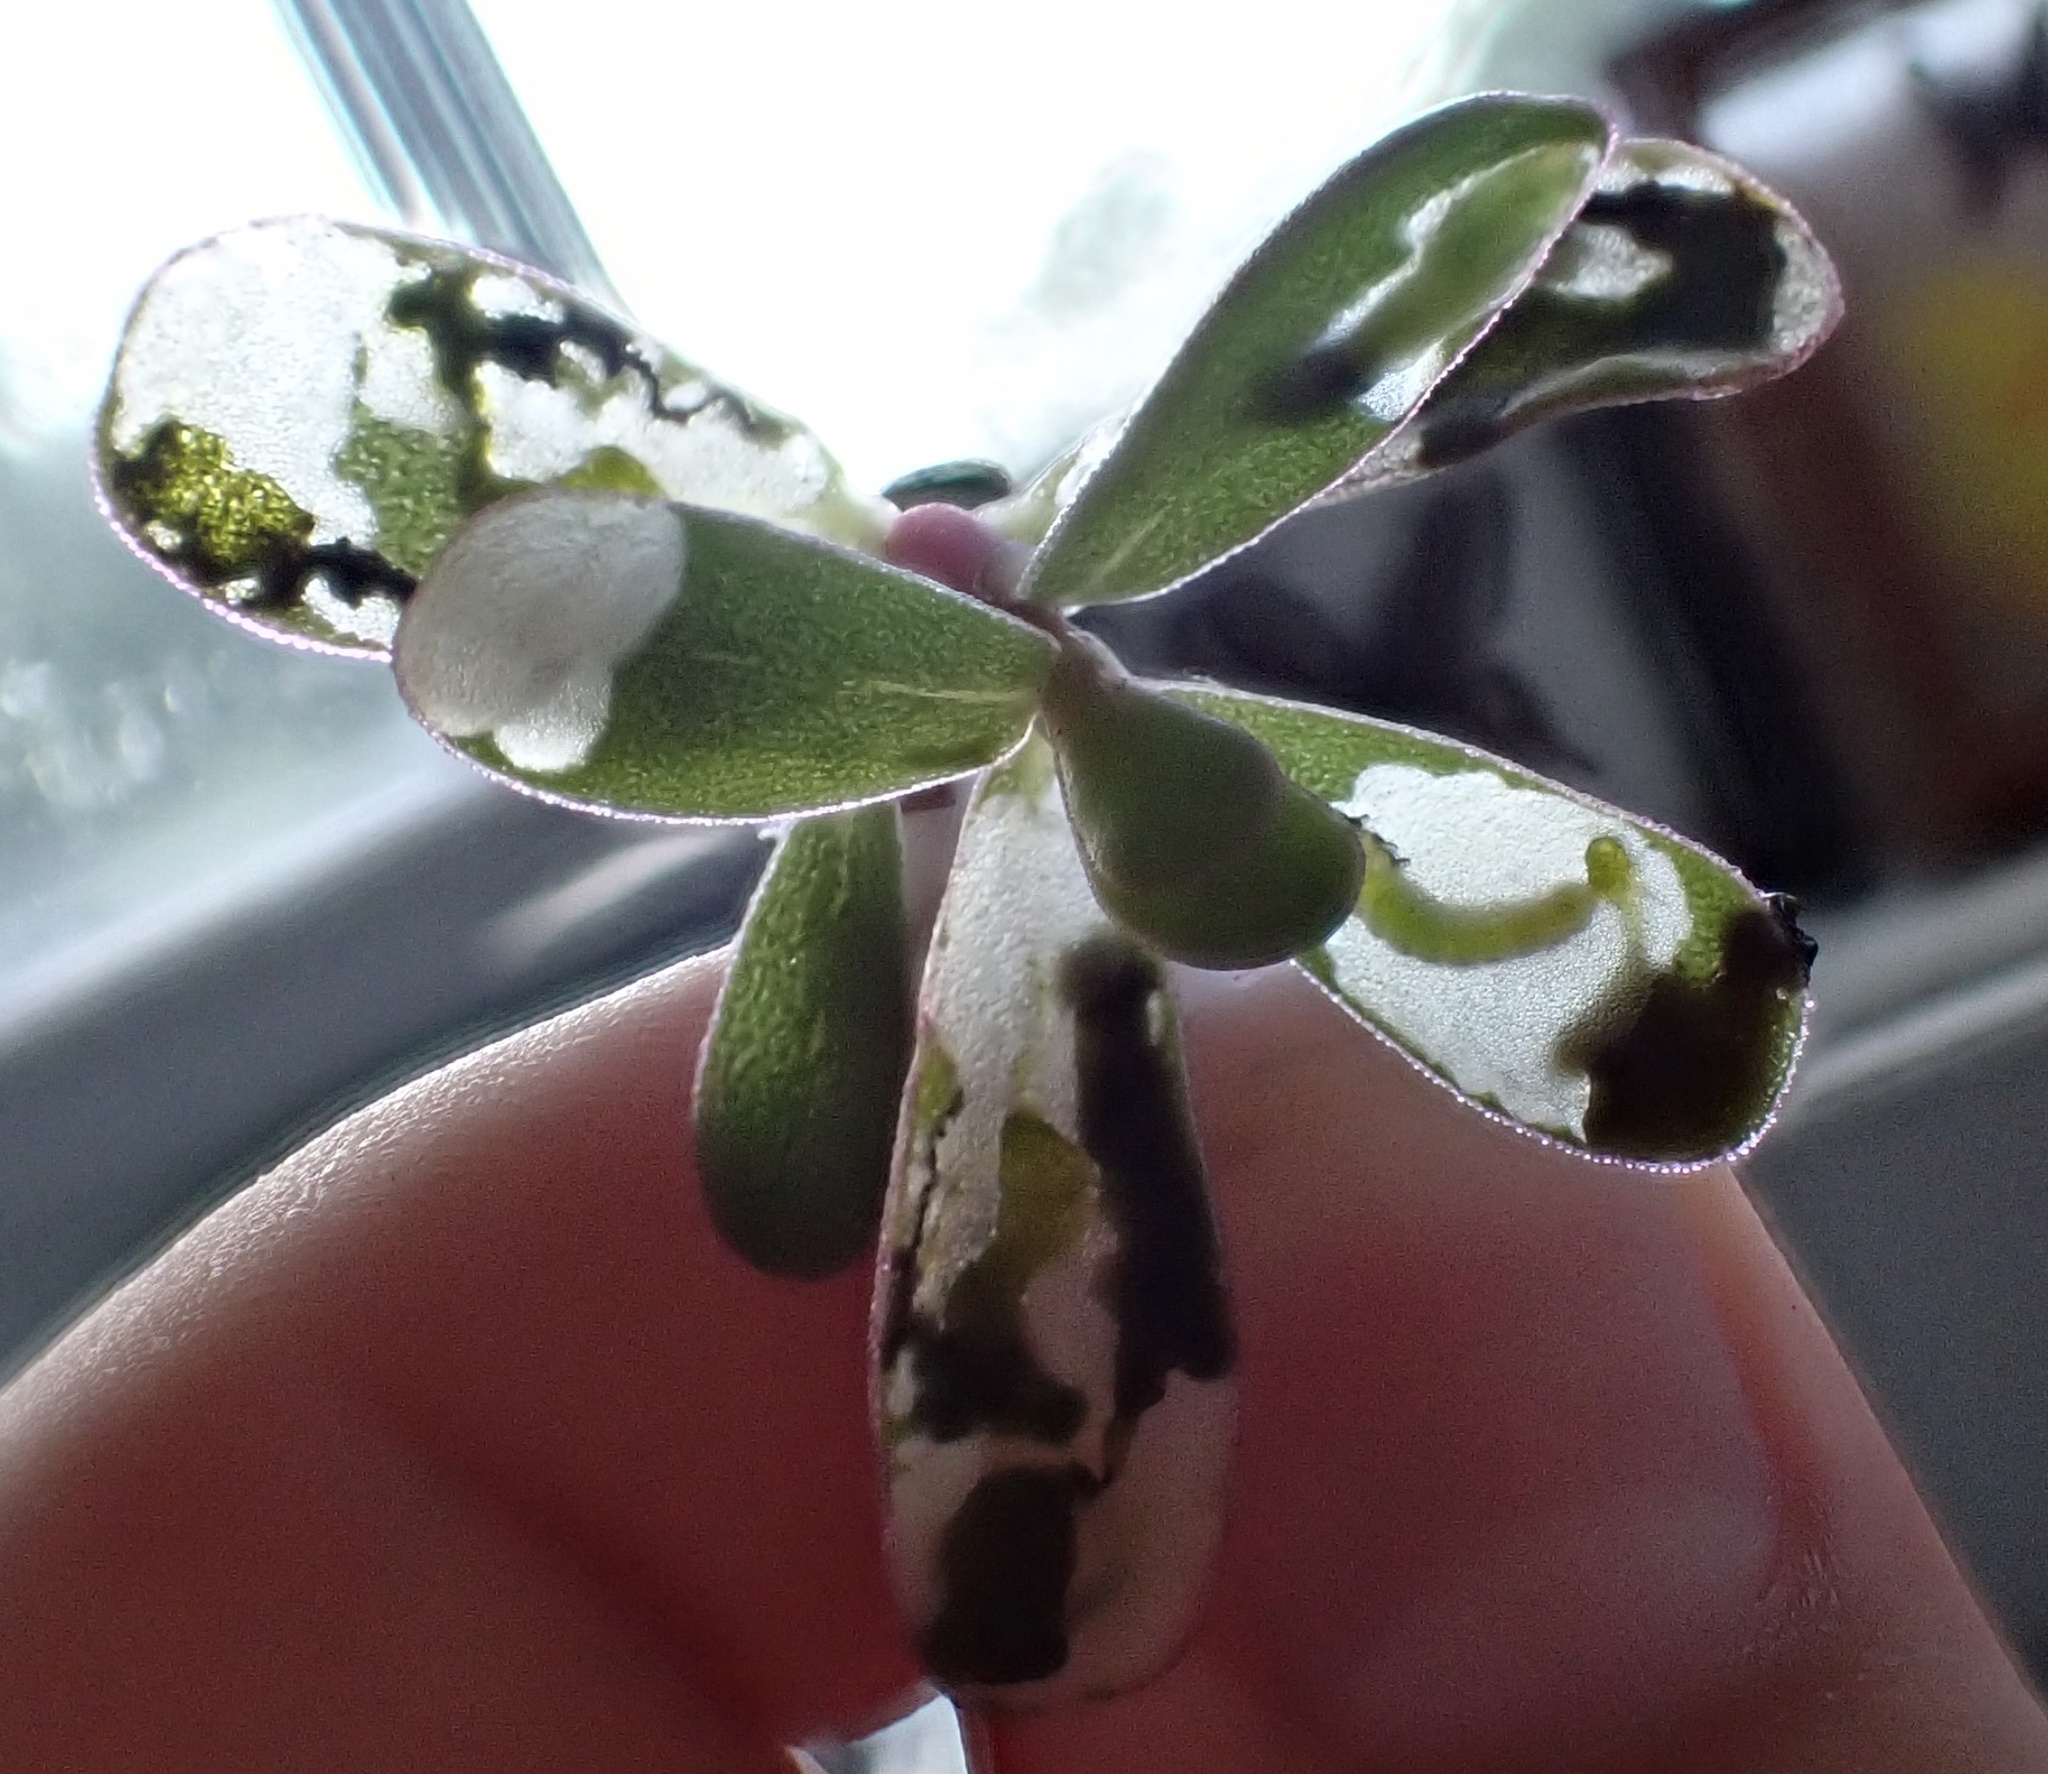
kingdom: Animalia
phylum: Arthropoda
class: Insecta
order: Hymenoptera
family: Argidae
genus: Schizocerella
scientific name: Schizocerella pilicornis
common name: Purslane sawfly
